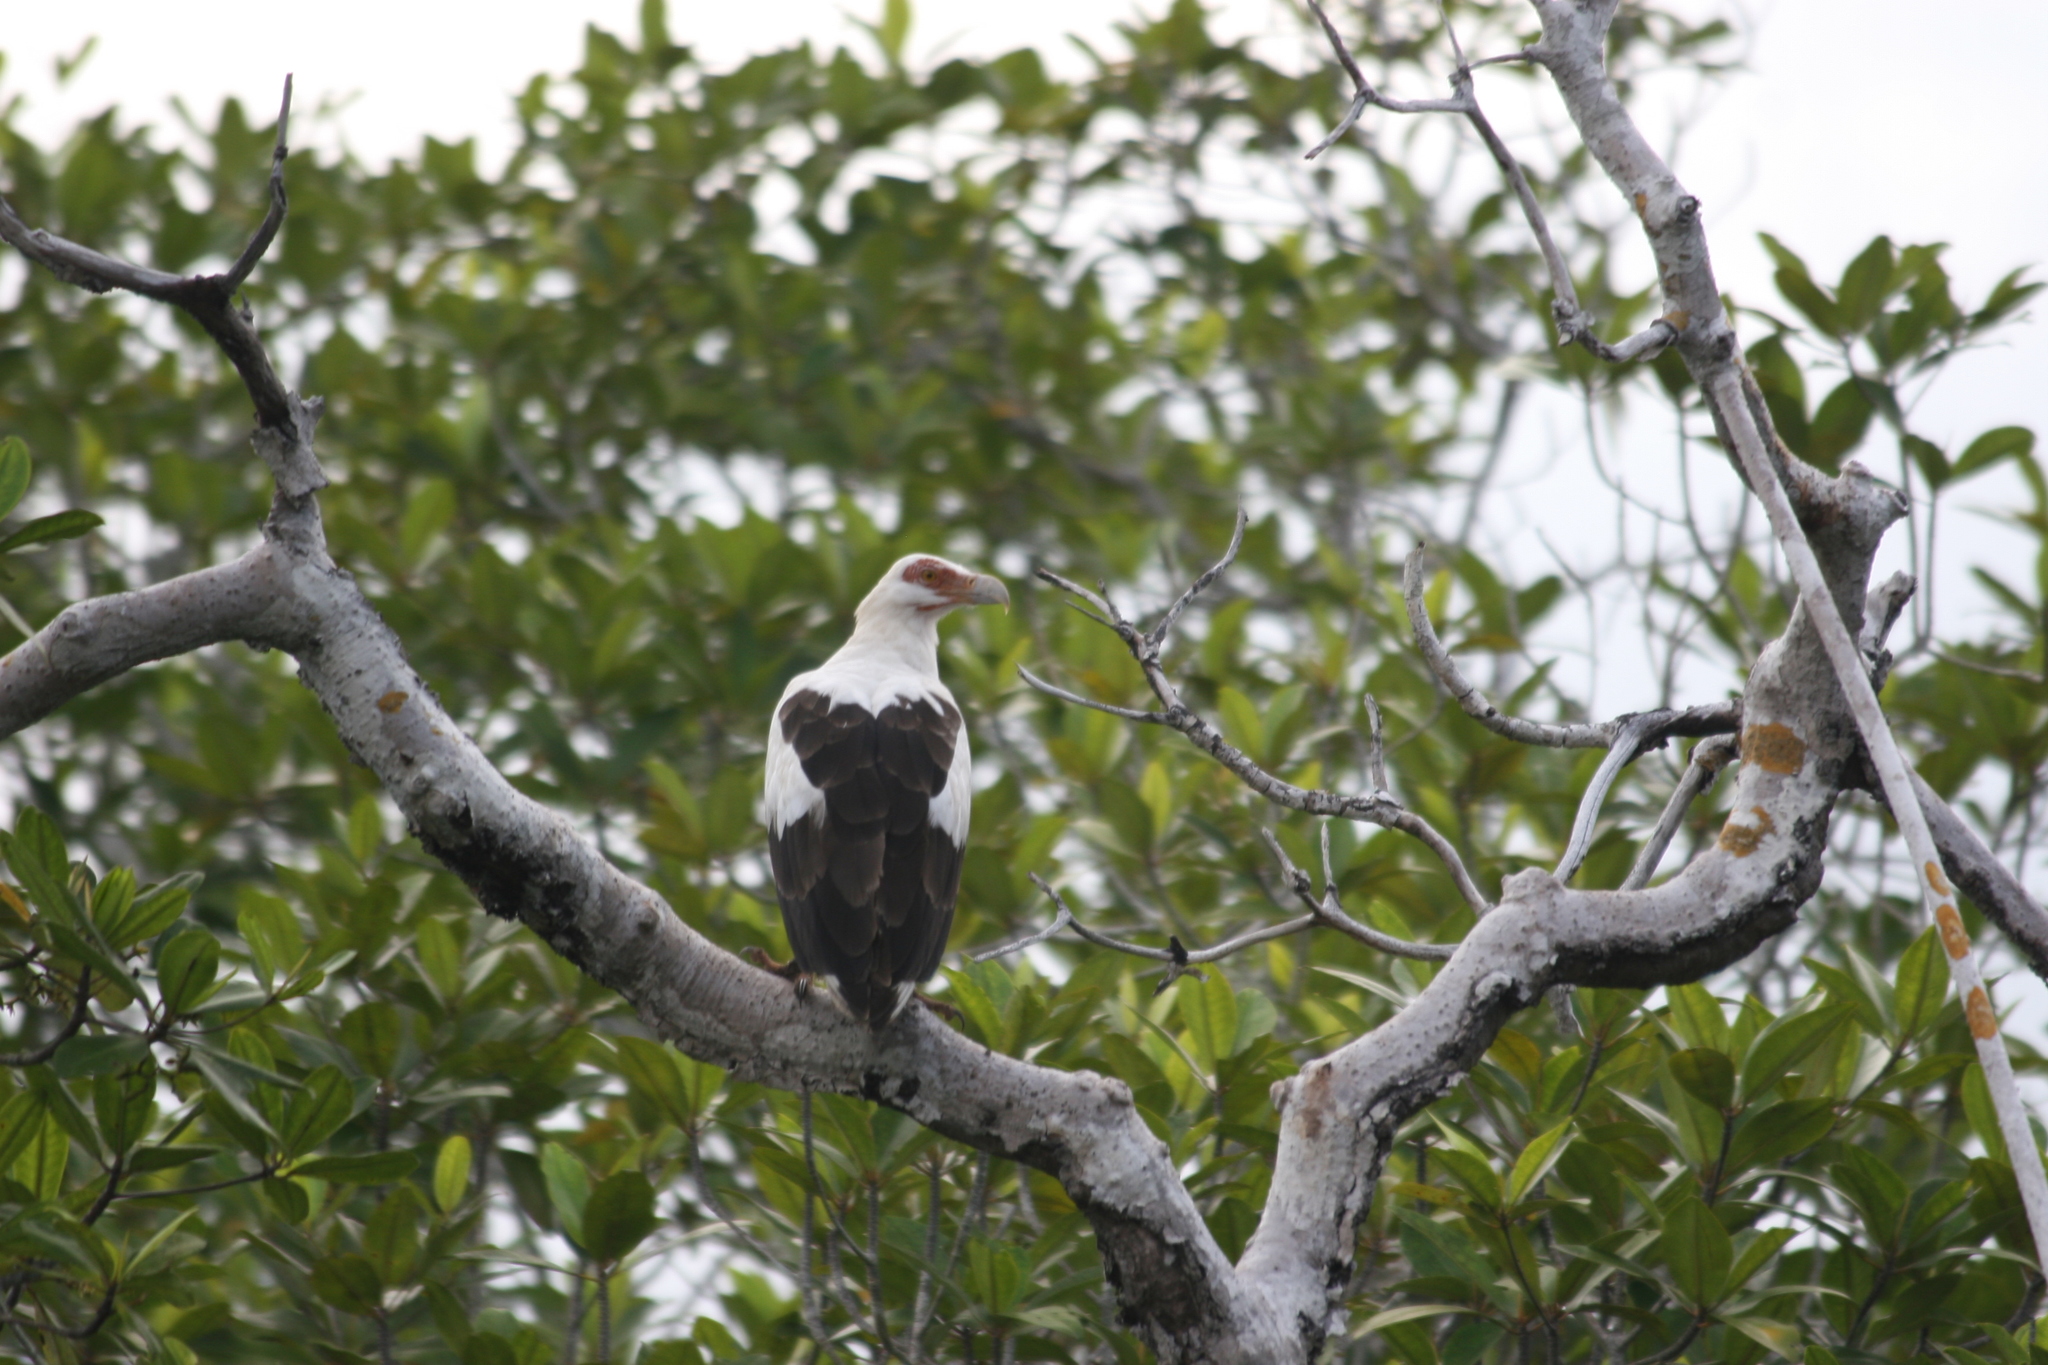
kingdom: Animalia
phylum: Chordata
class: Aves
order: Accipitriformes
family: Accipitridae
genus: Gypohierax
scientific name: Gypohierax angolensis
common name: Palm-nut vulture
